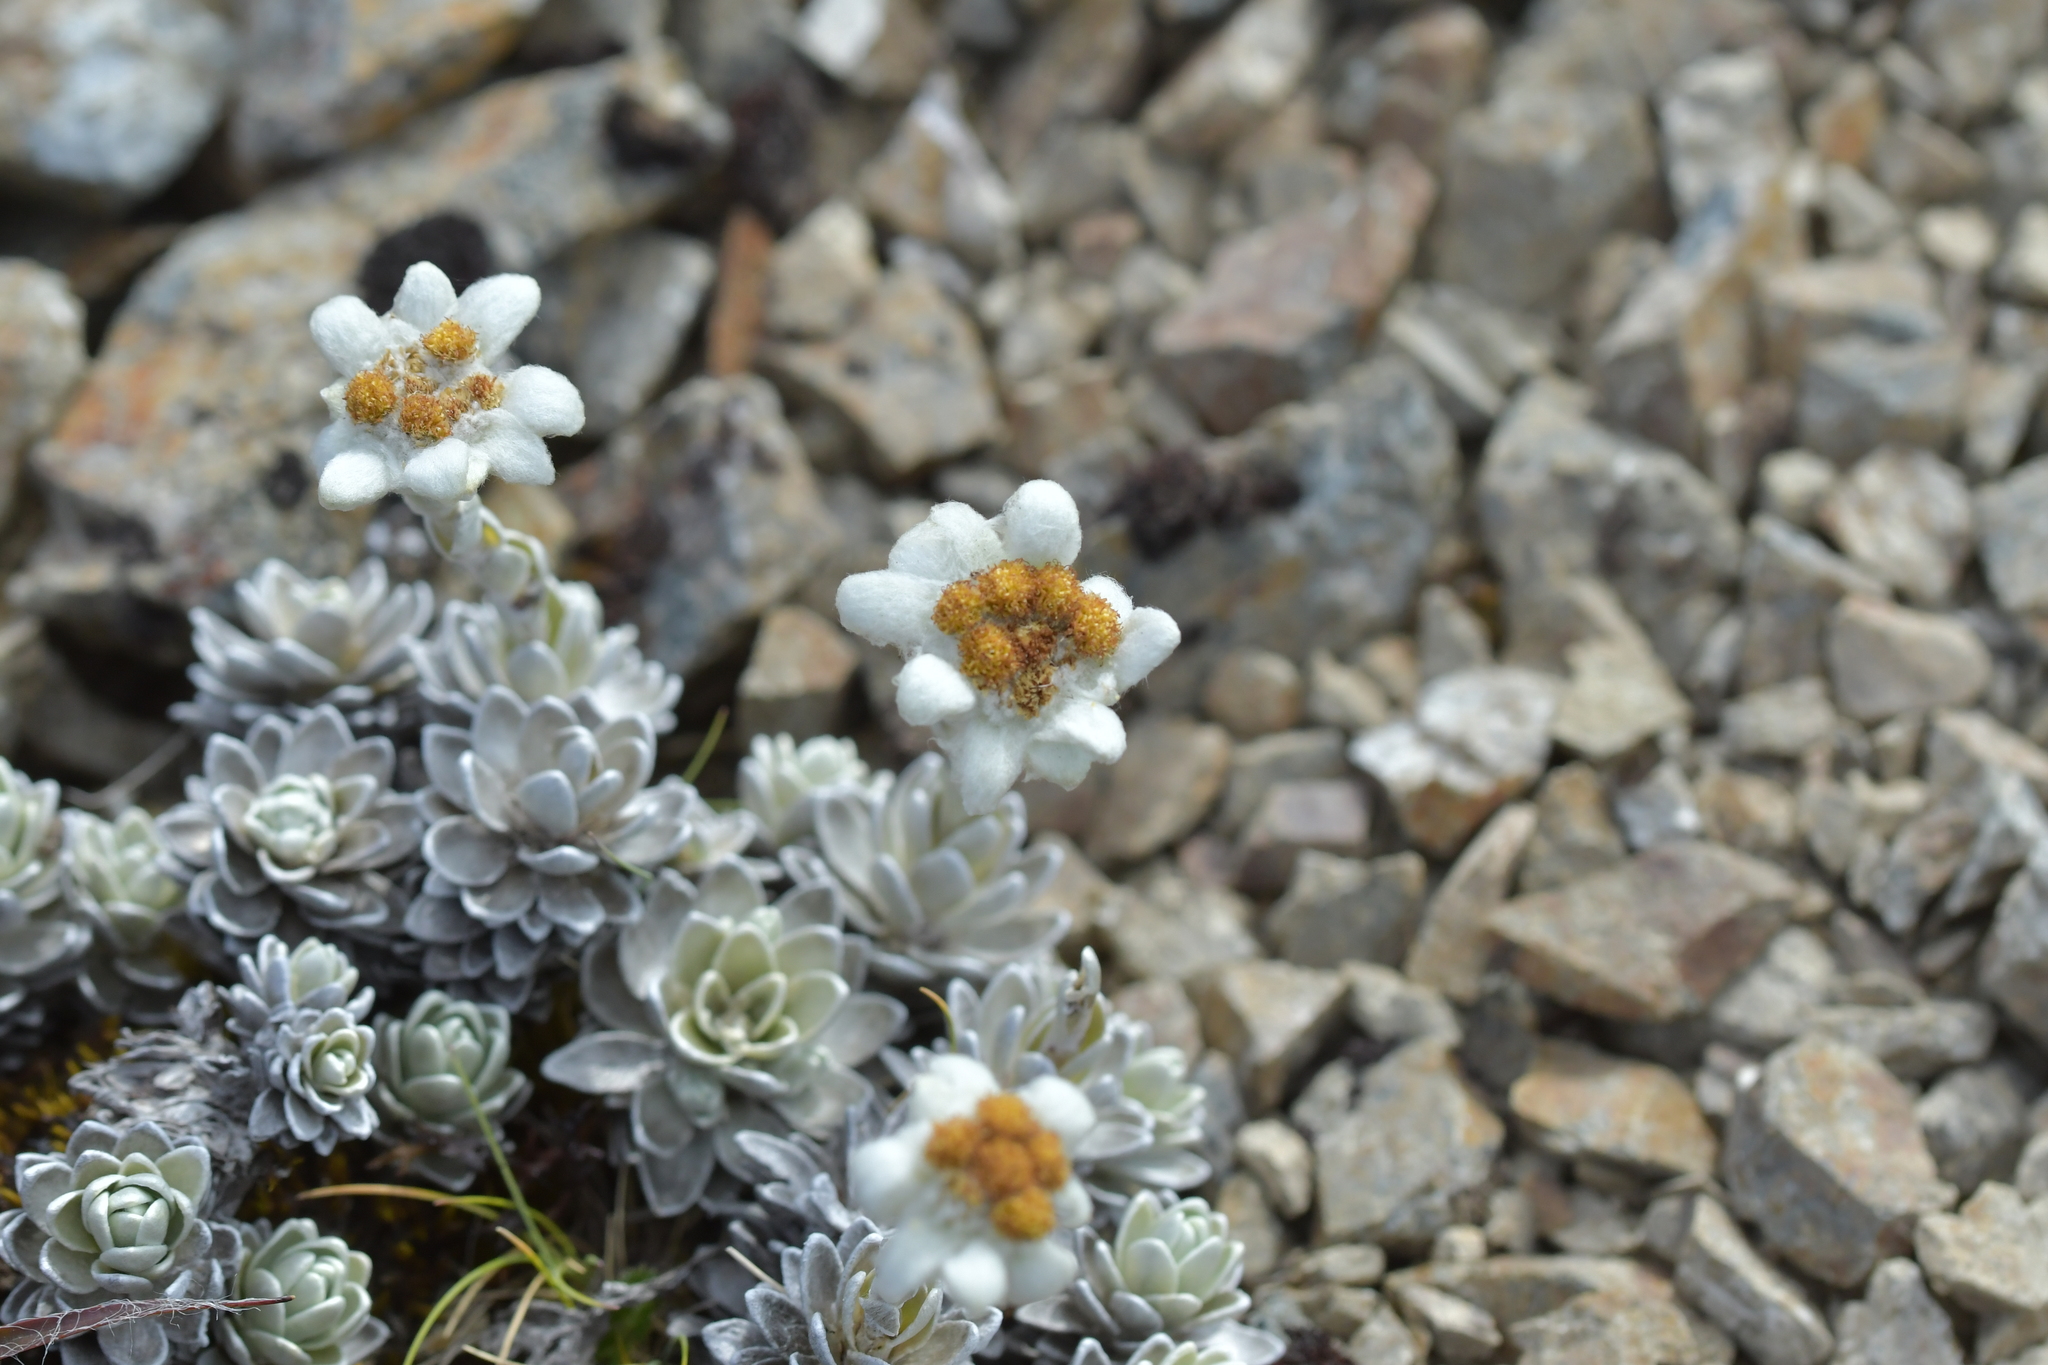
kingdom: Plantae
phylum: Tracheophyta
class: Magnoliopsida
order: Asterales
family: Asteraceae
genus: Leucogenes
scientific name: Leucogenes leontopodium
